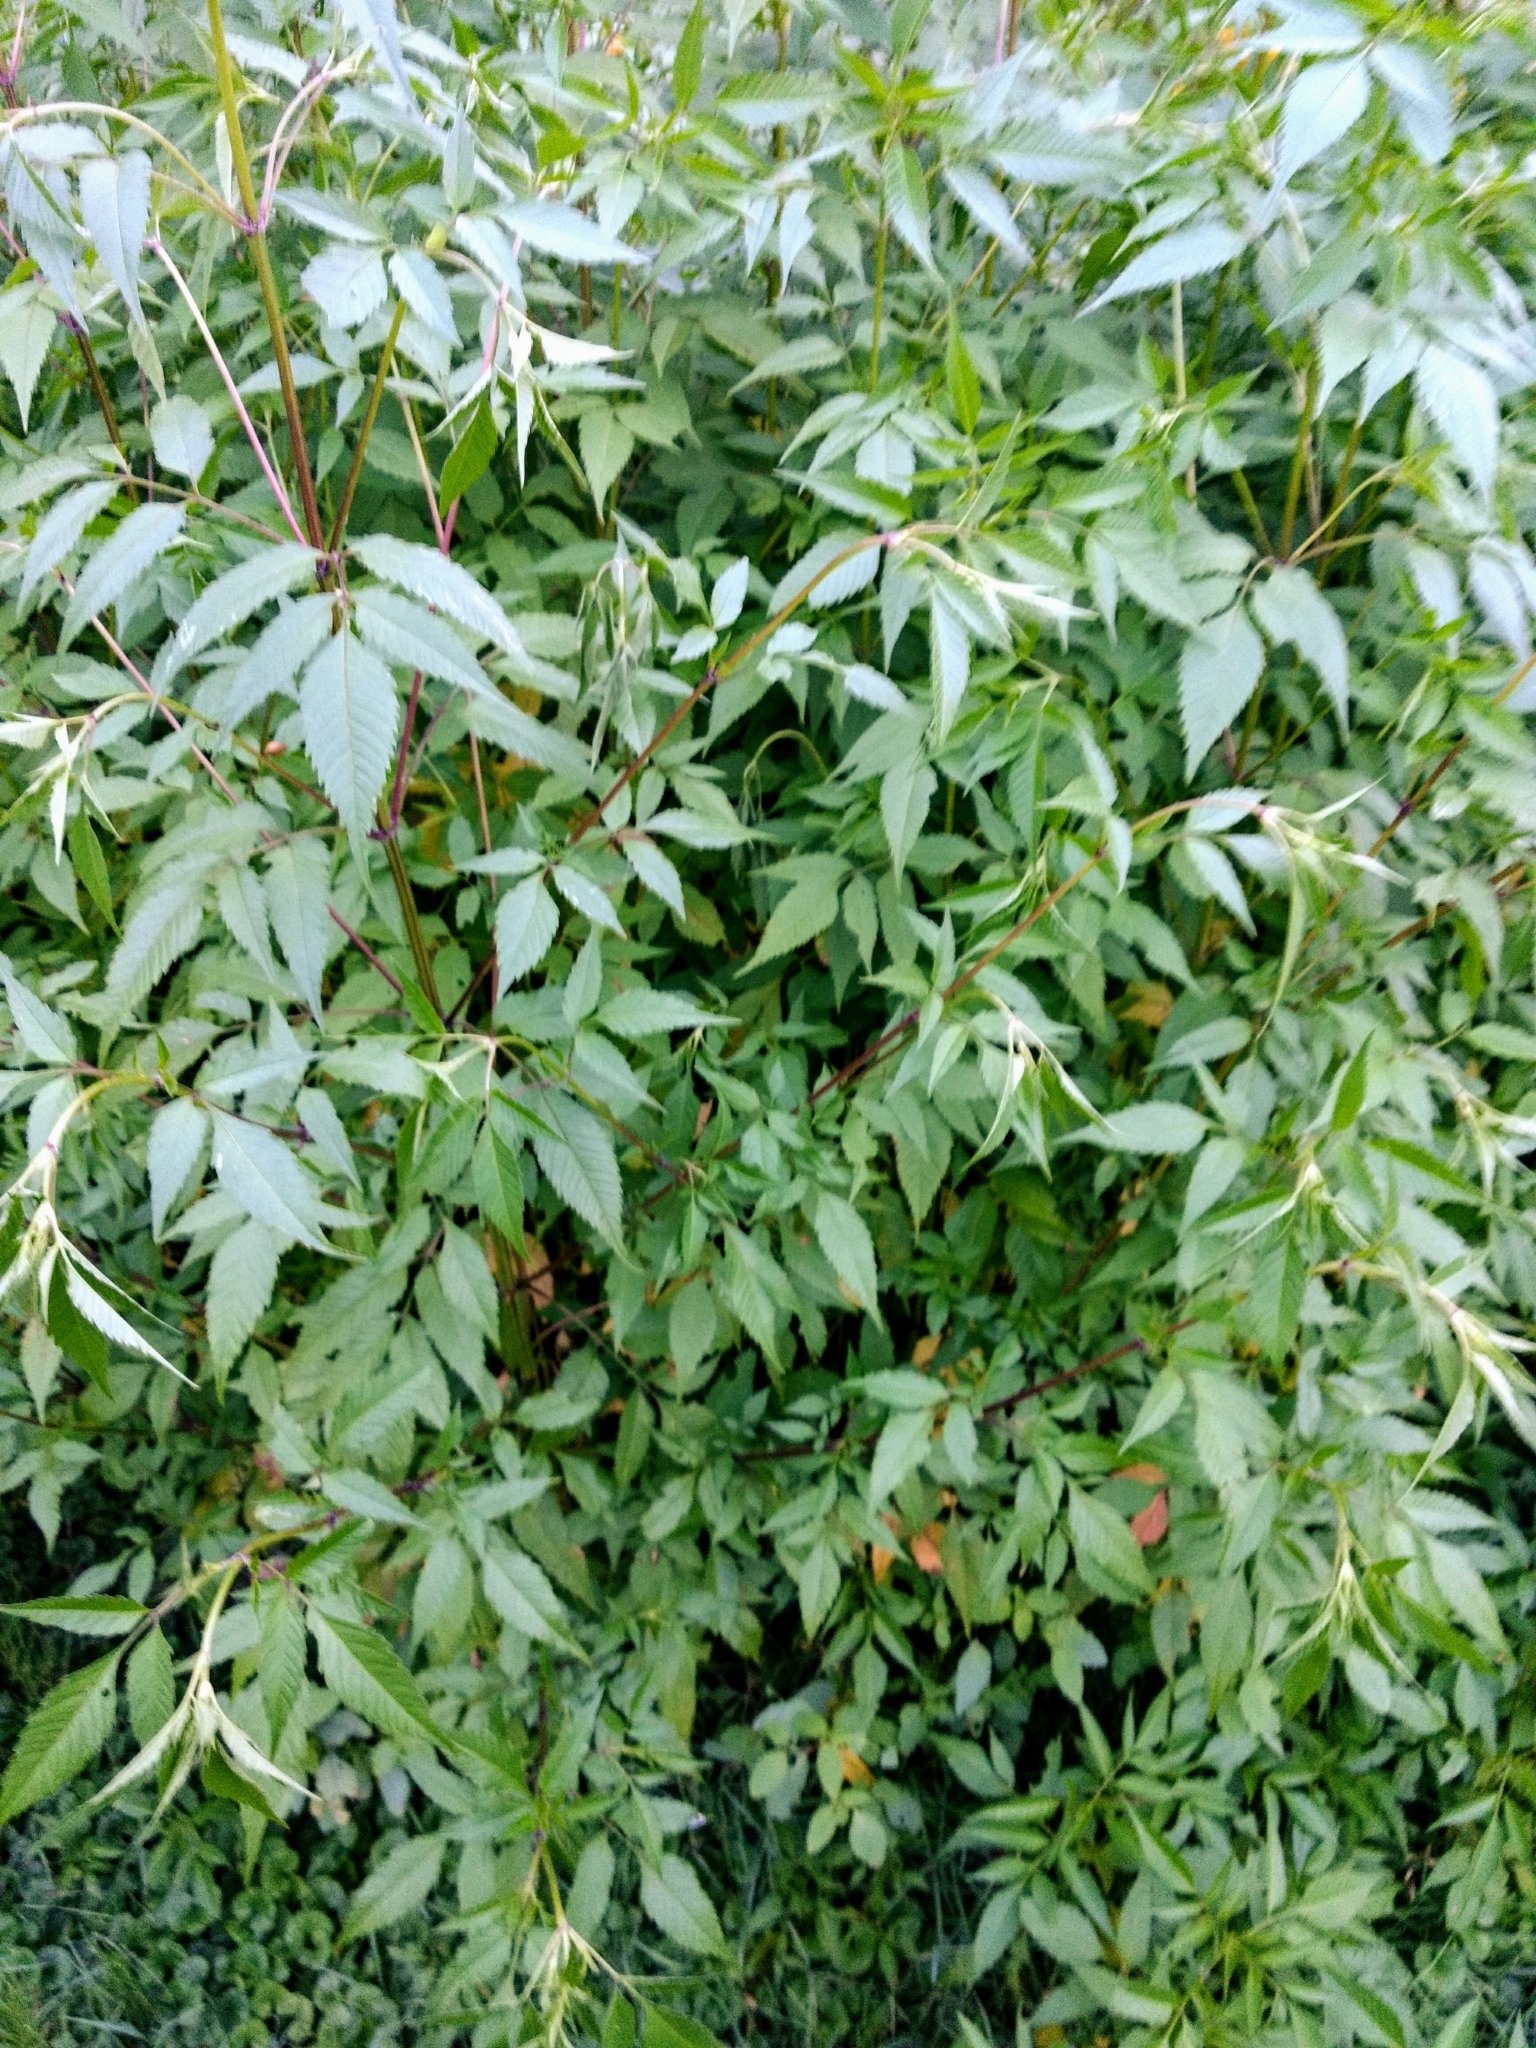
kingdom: Plantae
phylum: Tracheophyta
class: Magnoliopsida
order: Asterales
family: Asteraceae
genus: Bidens
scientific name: Bidens frondosa
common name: Beggarticks
